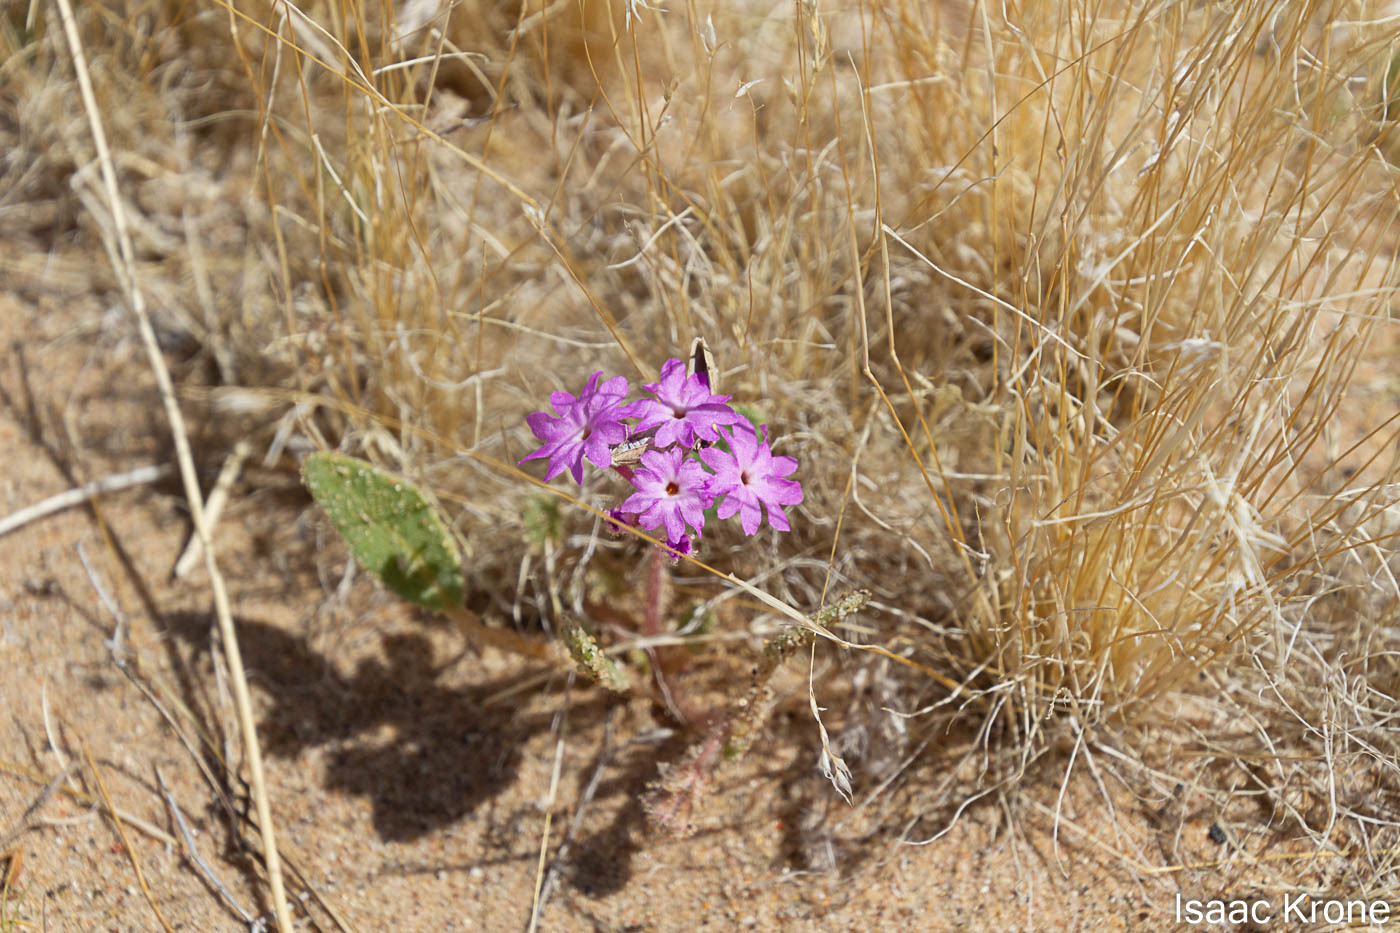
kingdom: Plantae
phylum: Tracheophyta
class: Magnoliopsida
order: Caryophyllales
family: Nyctaginaceae
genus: Abronia
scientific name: Abronia villosa
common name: Desert sand-verbena
